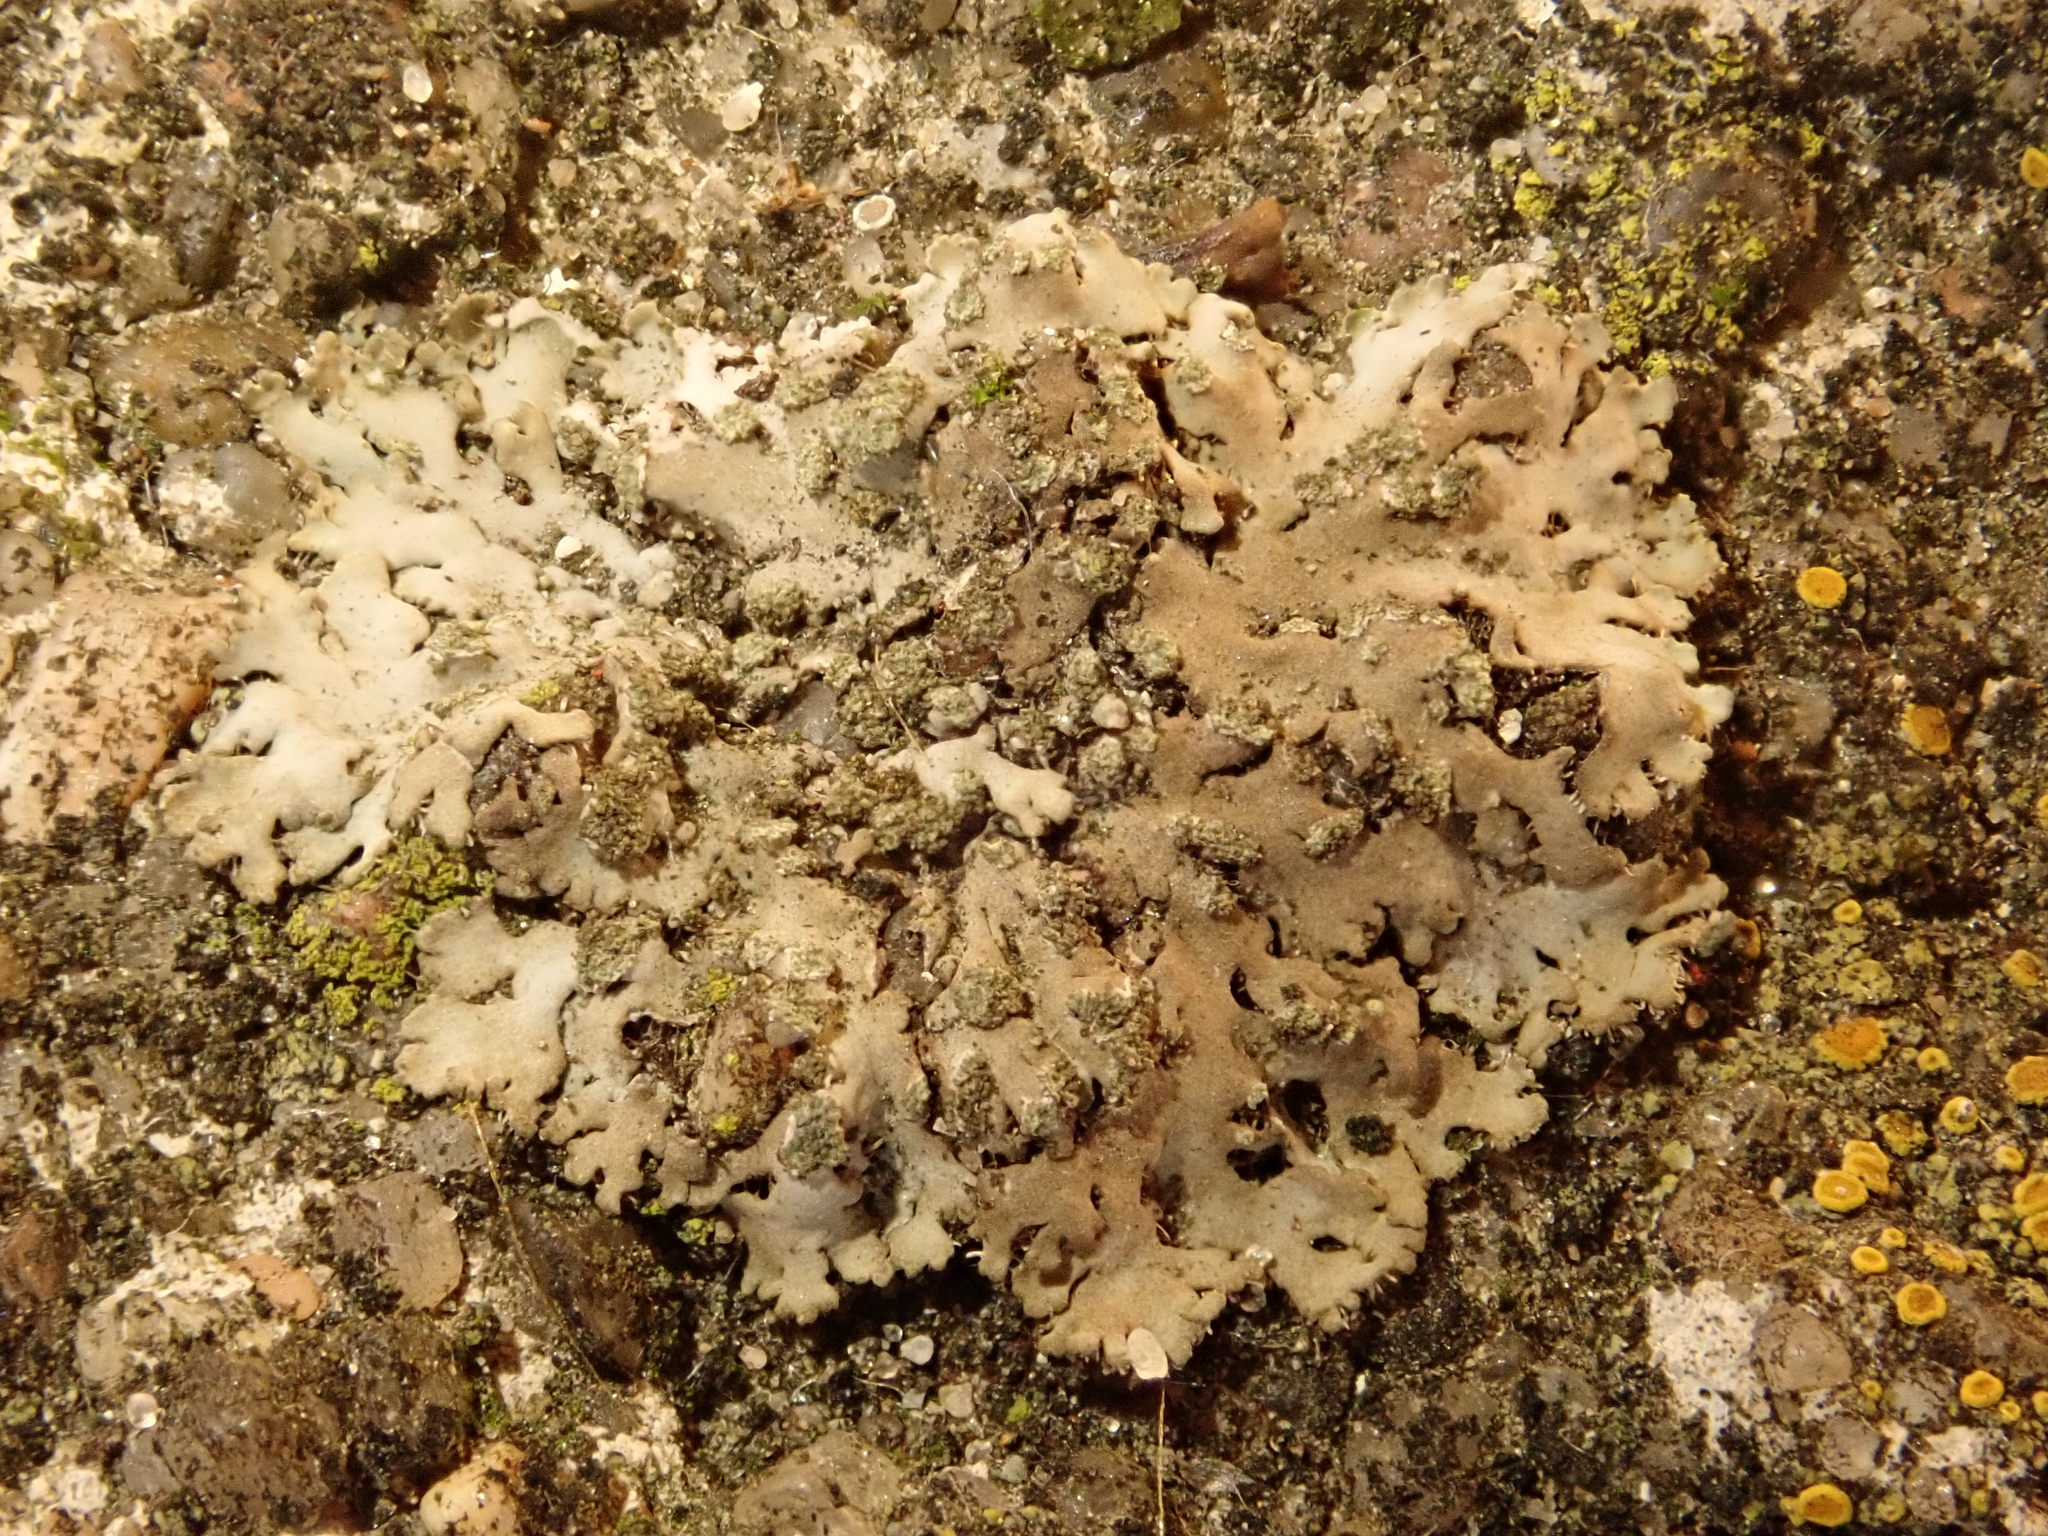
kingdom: Fungi
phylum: Ascomycota
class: Lecanoromycetes
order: Caliciales
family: Physciaceae
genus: Phaeophyscia
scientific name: Phaeophyscia orbicularis
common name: Mealy shadow lichen
